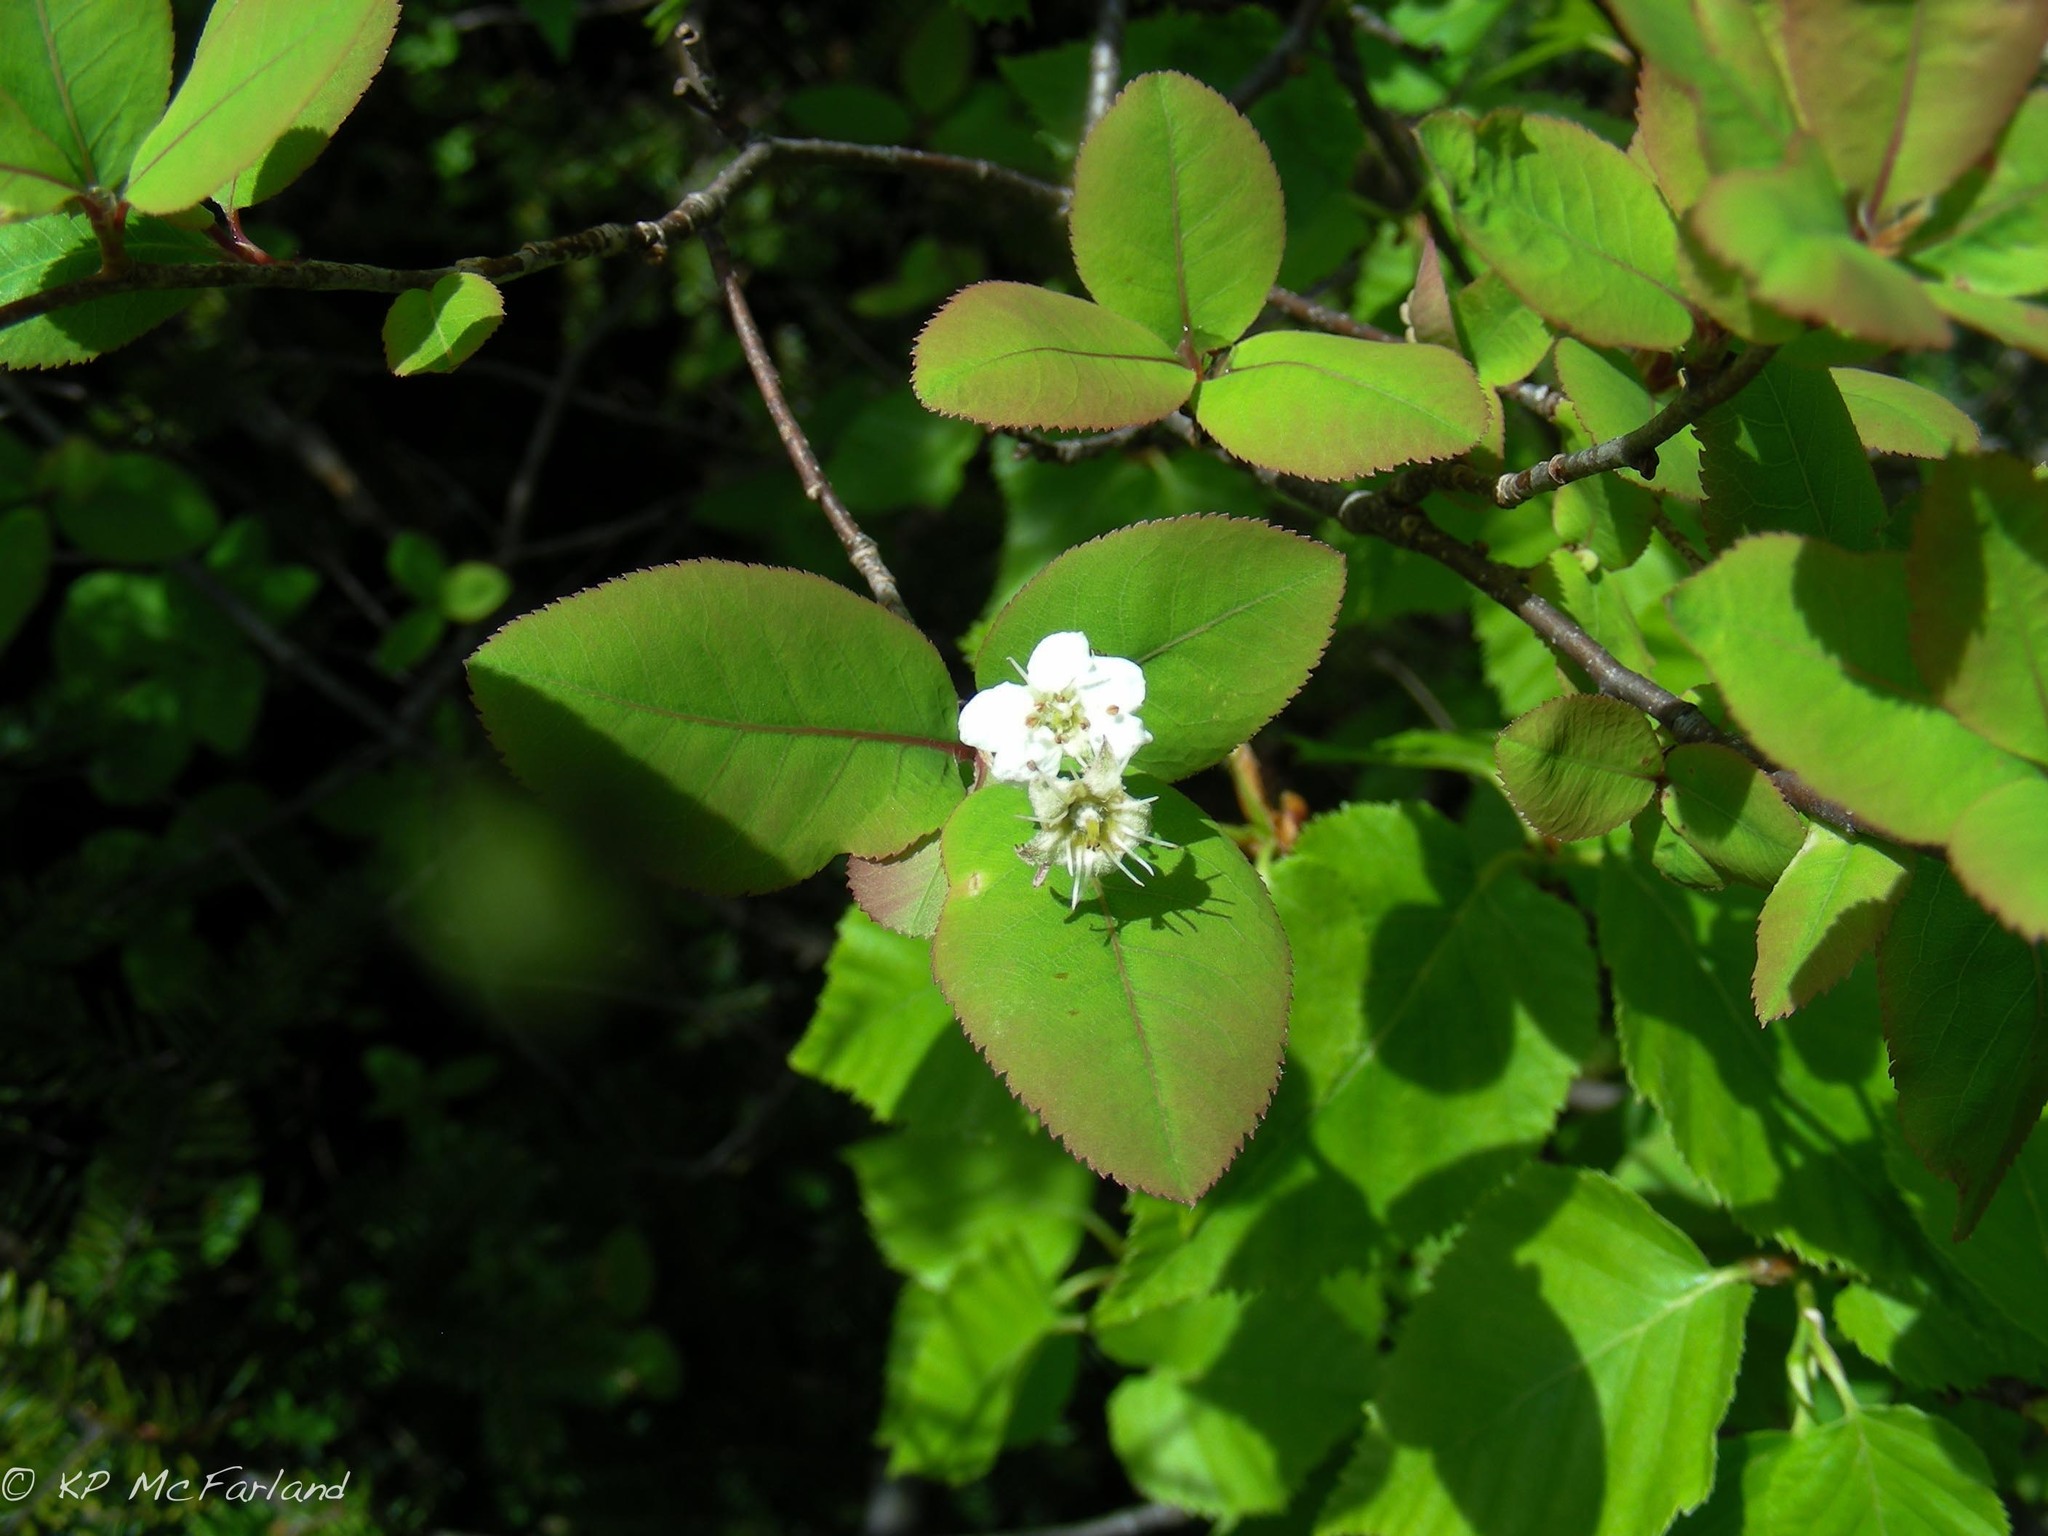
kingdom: Plantae
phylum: Tracheophyta
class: Magnoliopsida
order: Rosales
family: Rosaceae
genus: Amelanchier
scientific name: Amelanchier bartramiana
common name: Mountain serviceberry
